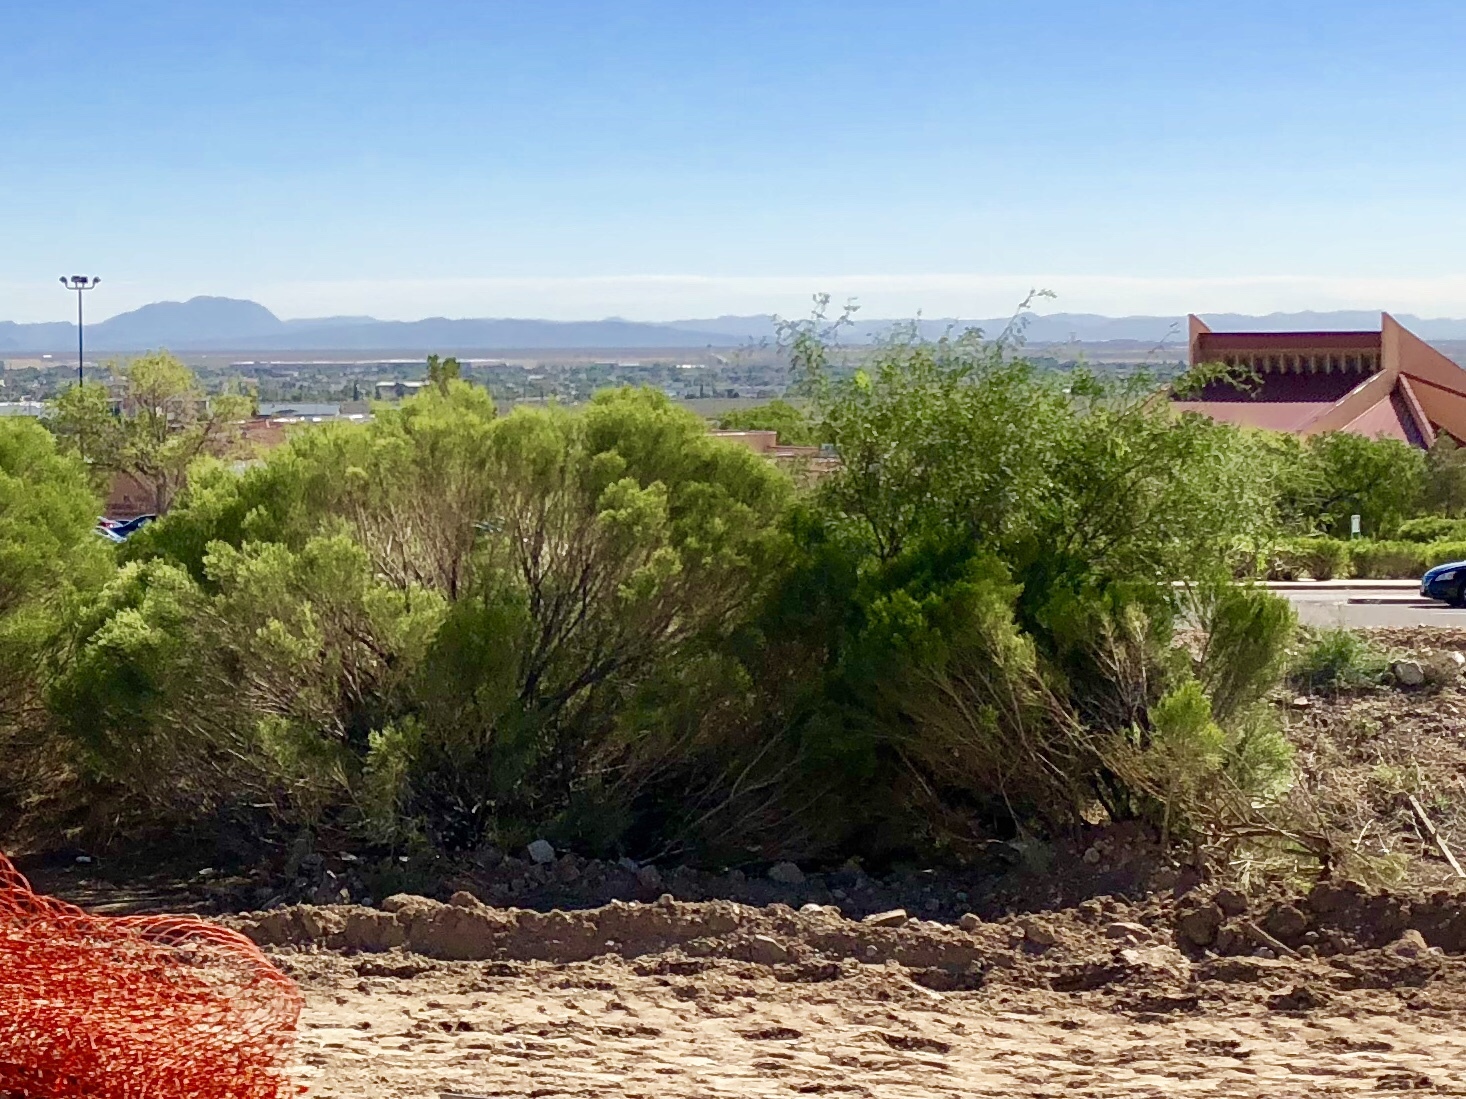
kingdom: Plantae
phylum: Tracheophyta
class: Magnoliopsida
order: Asterales
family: Asteraceae
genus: Baccharis
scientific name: Baccharis sarothroides
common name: Desert-broom
